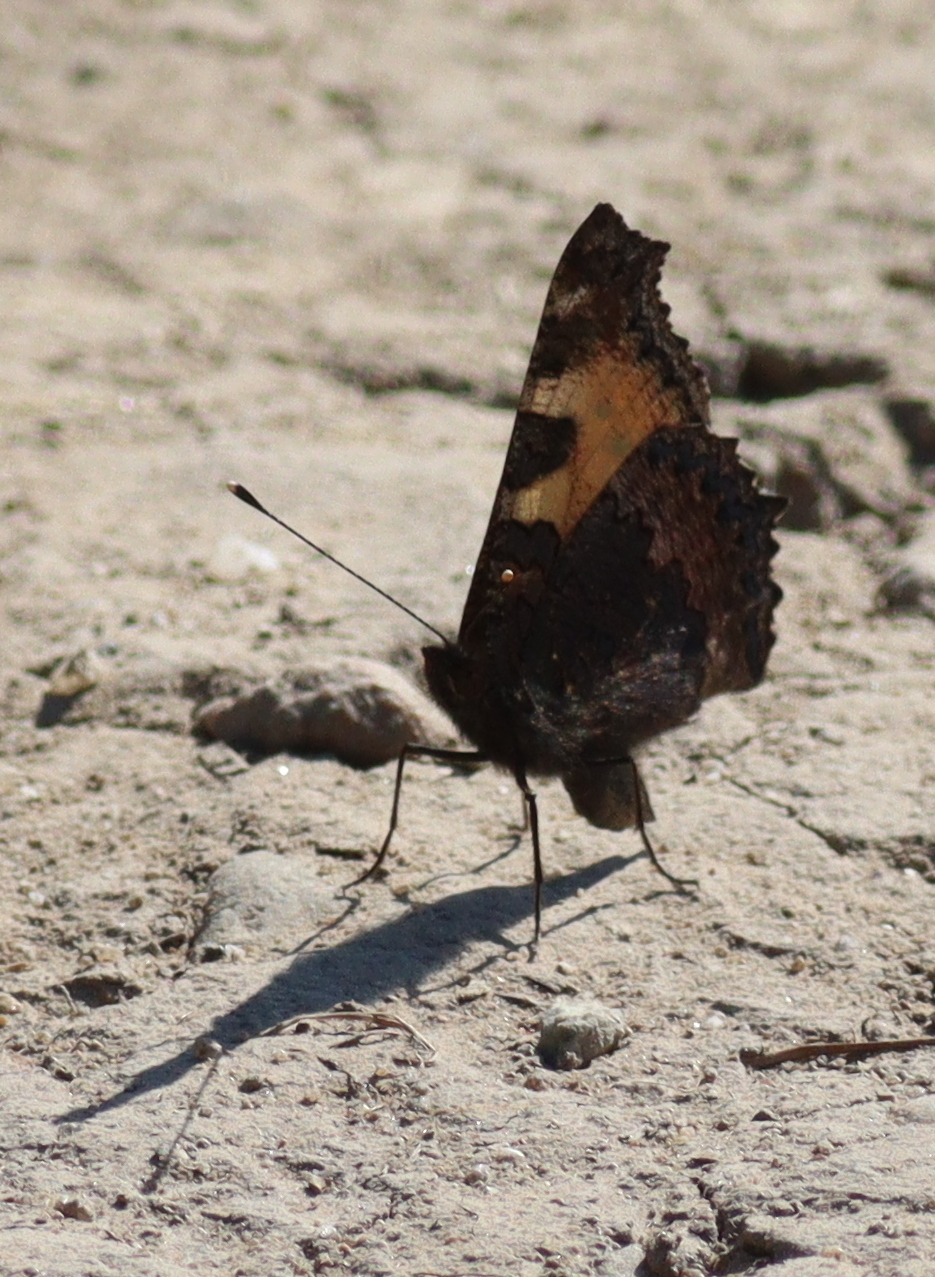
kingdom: Animalia
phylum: Arthropoda
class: Insecta
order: Lepidoptera
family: Nymphalidae
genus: Aglais
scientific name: Aglais urticae
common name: Small tortoiseshell
